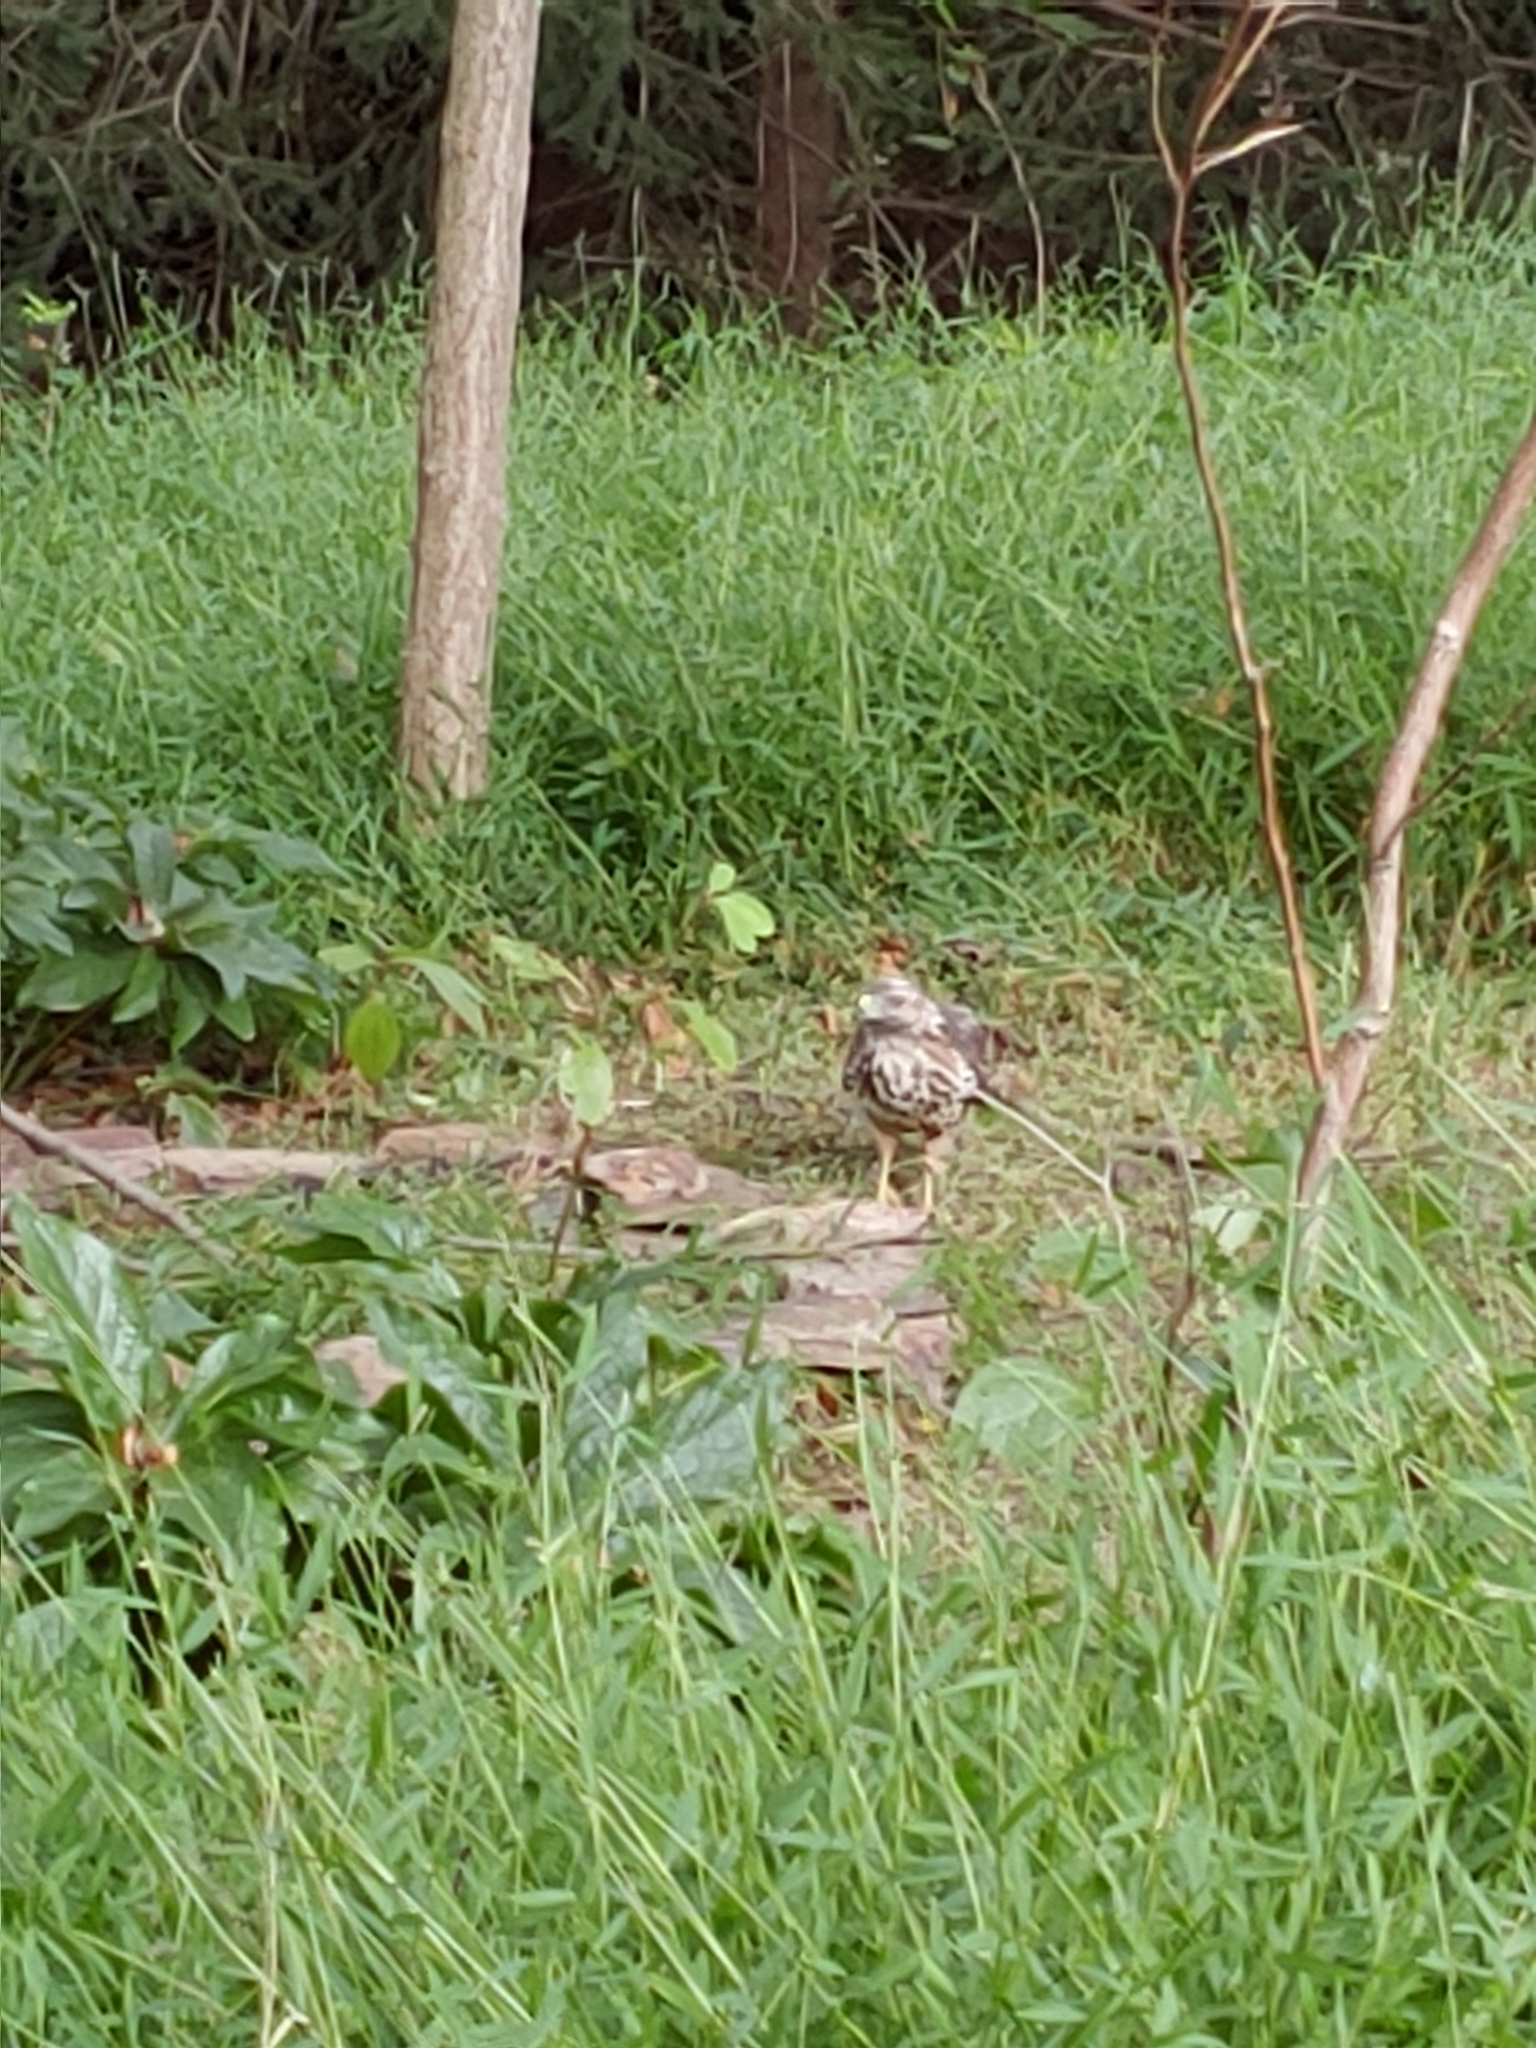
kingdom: Animalia
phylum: Chordata
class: Aves
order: Accipitriformes
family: Accipitridae
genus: Accipiter
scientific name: Accipiter cooperii
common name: Cooper's hawk
